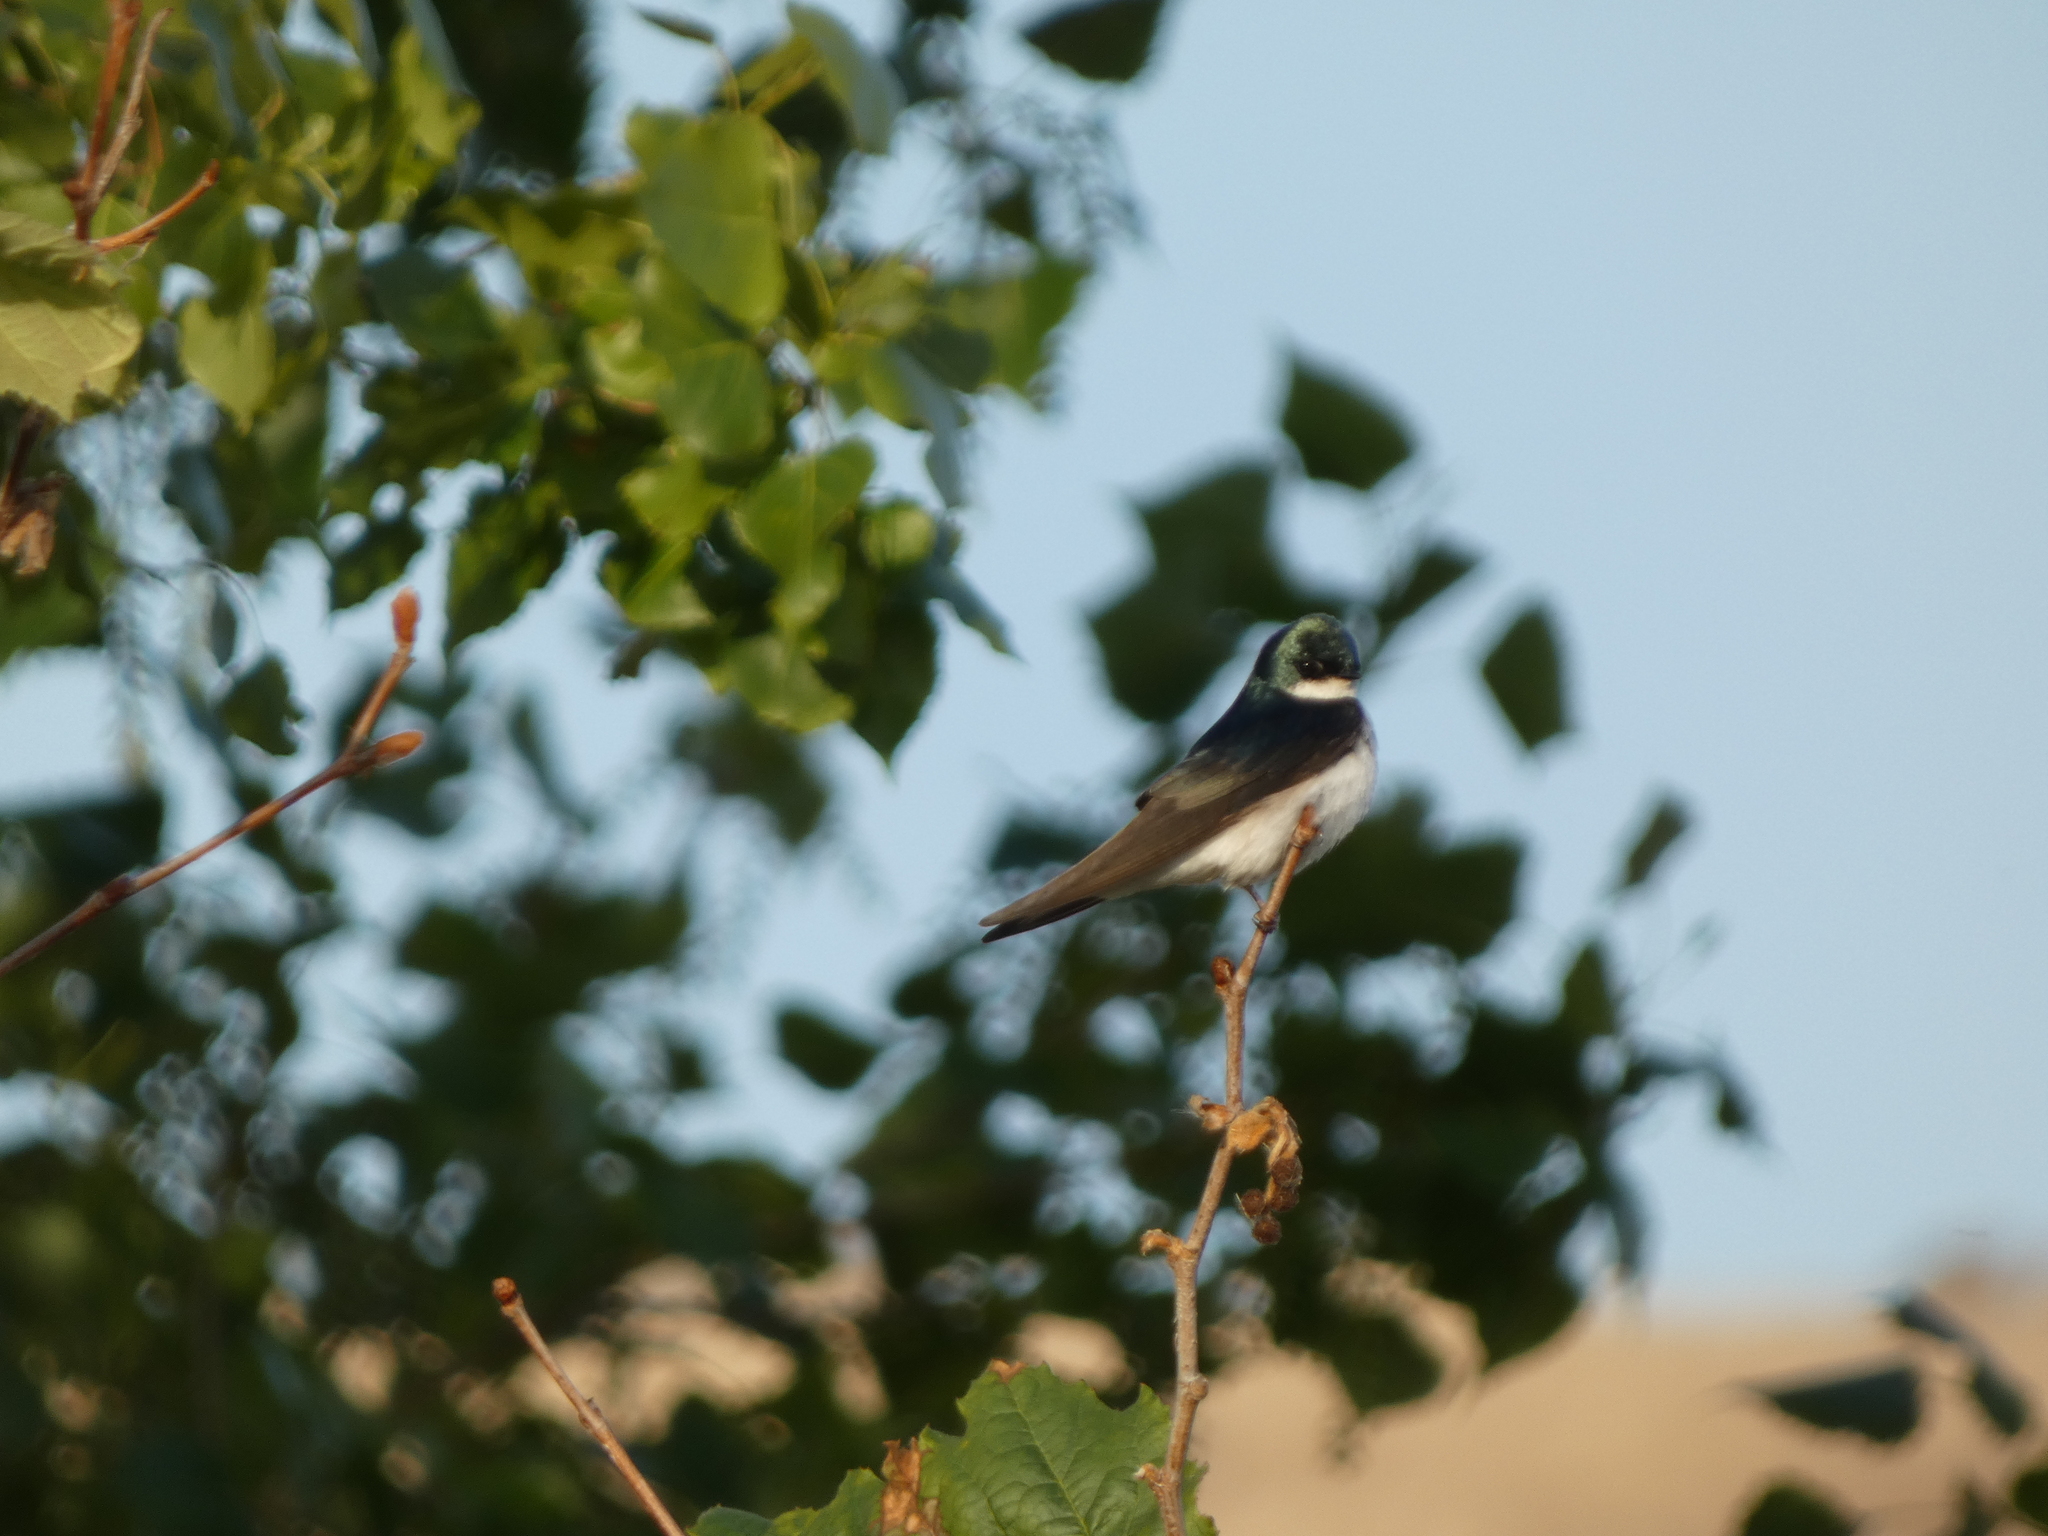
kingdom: Animalia
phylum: Chordata
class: Aves
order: Passeriformes
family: Hirundinidae
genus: Tachycineta
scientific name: Tachycineta bicolor
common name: Tree swallow
